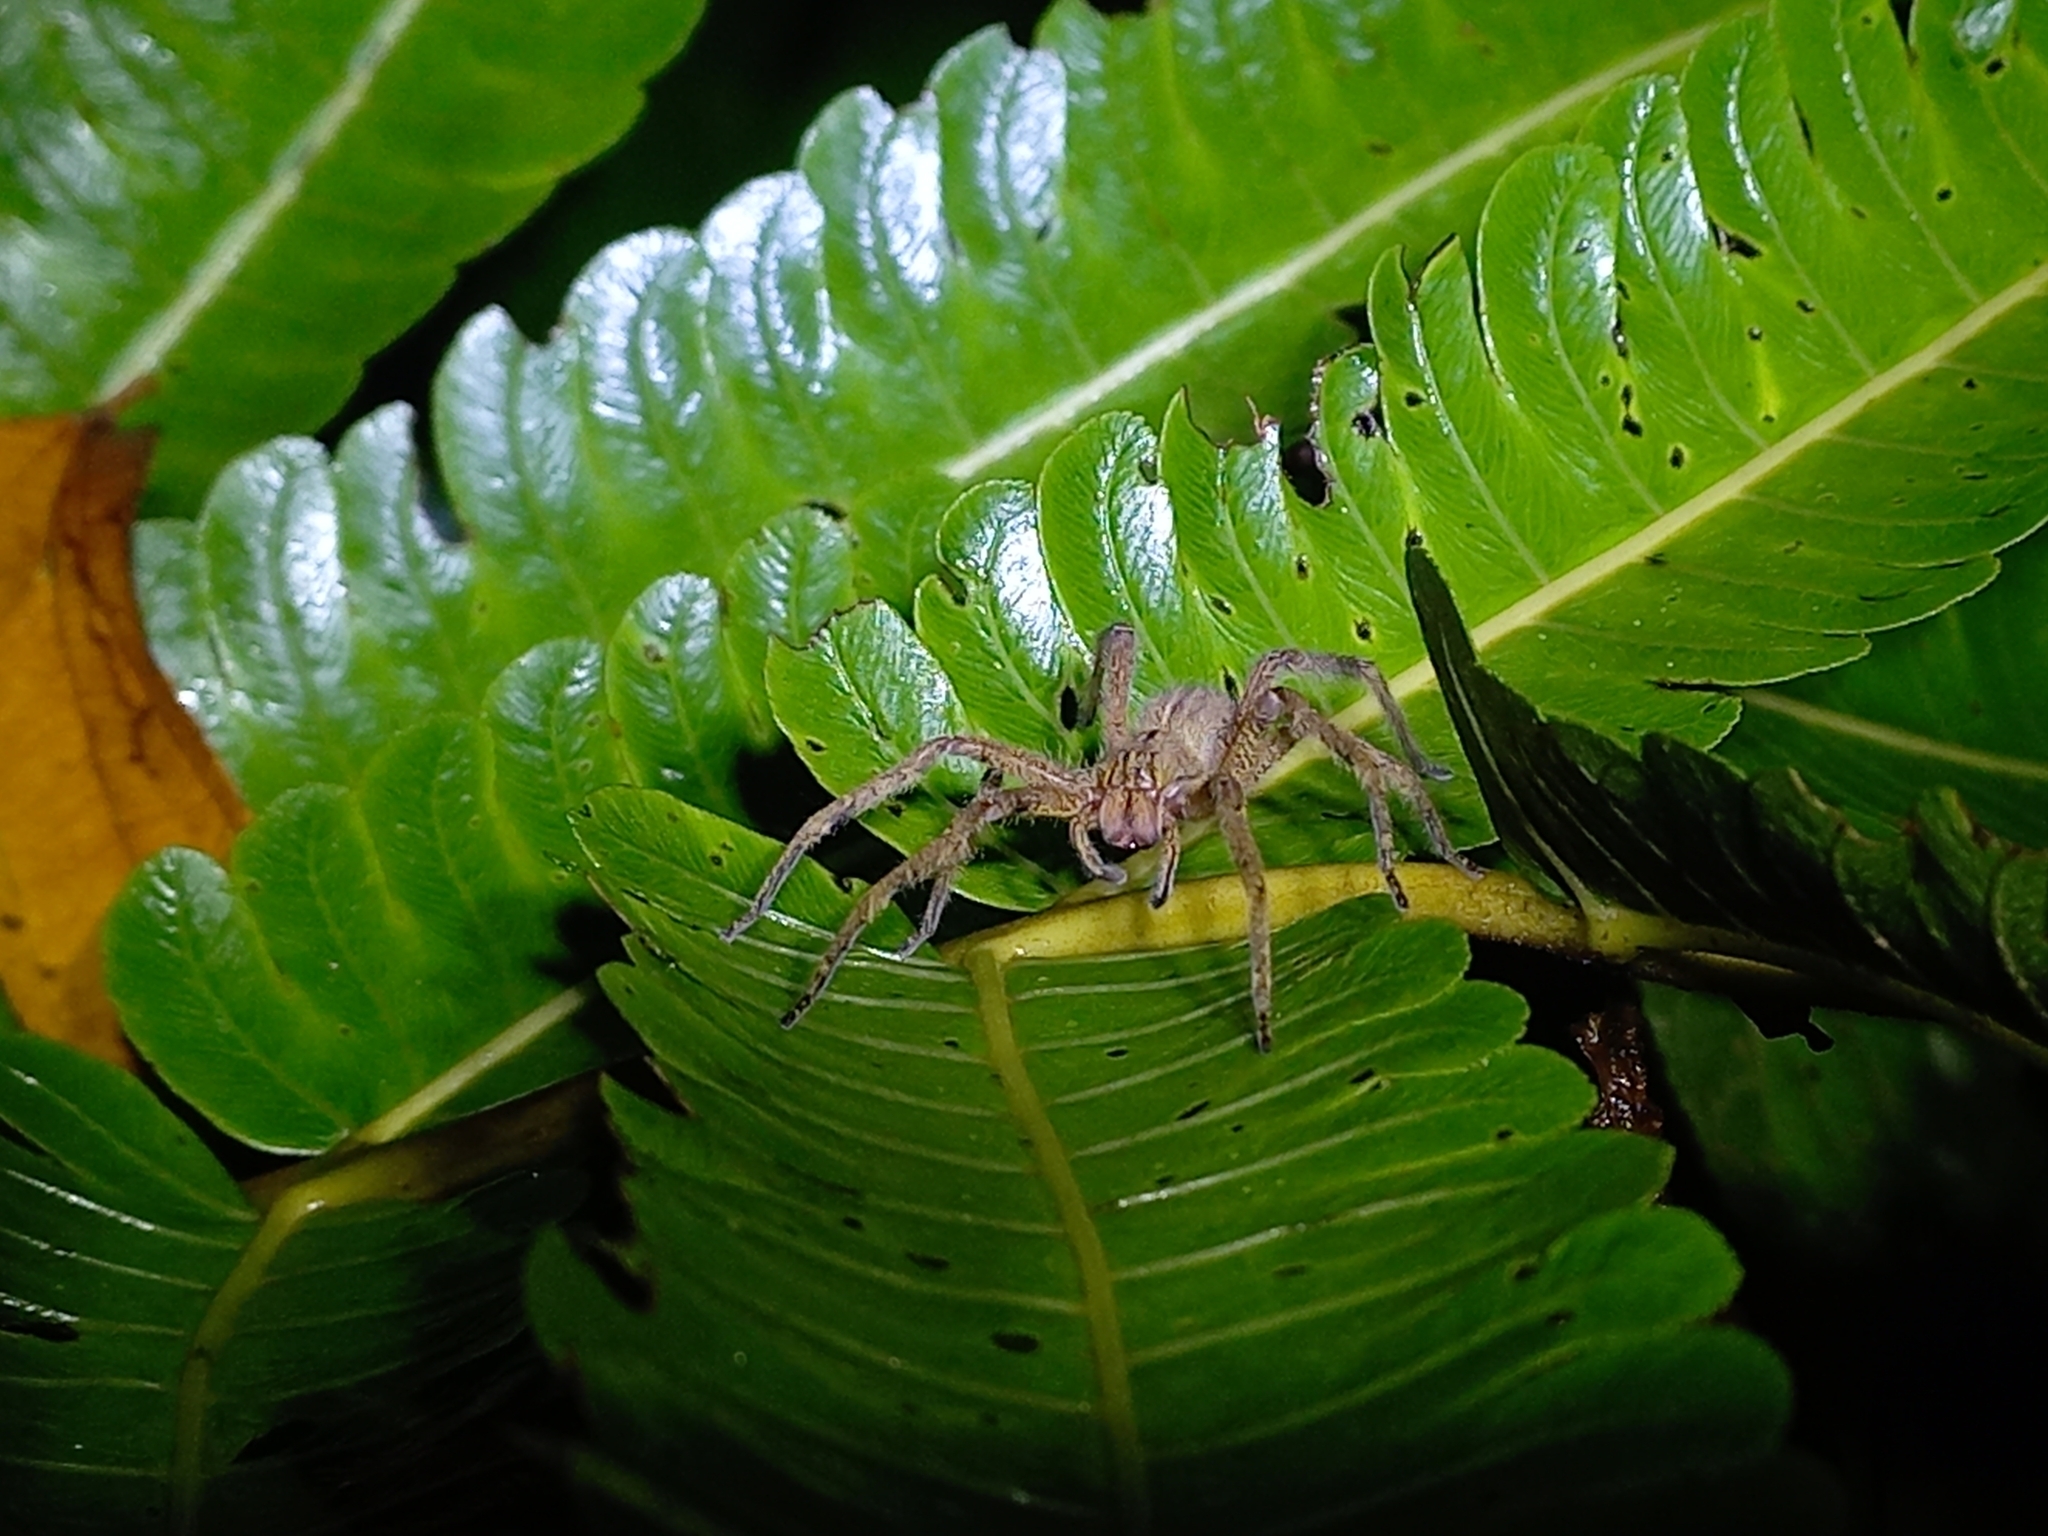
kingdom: Animalia
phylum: Arthropoda
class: Arachnida
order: Araneae
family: Ctenidae
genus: Phoneutria
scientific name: Phoneutria depilata
